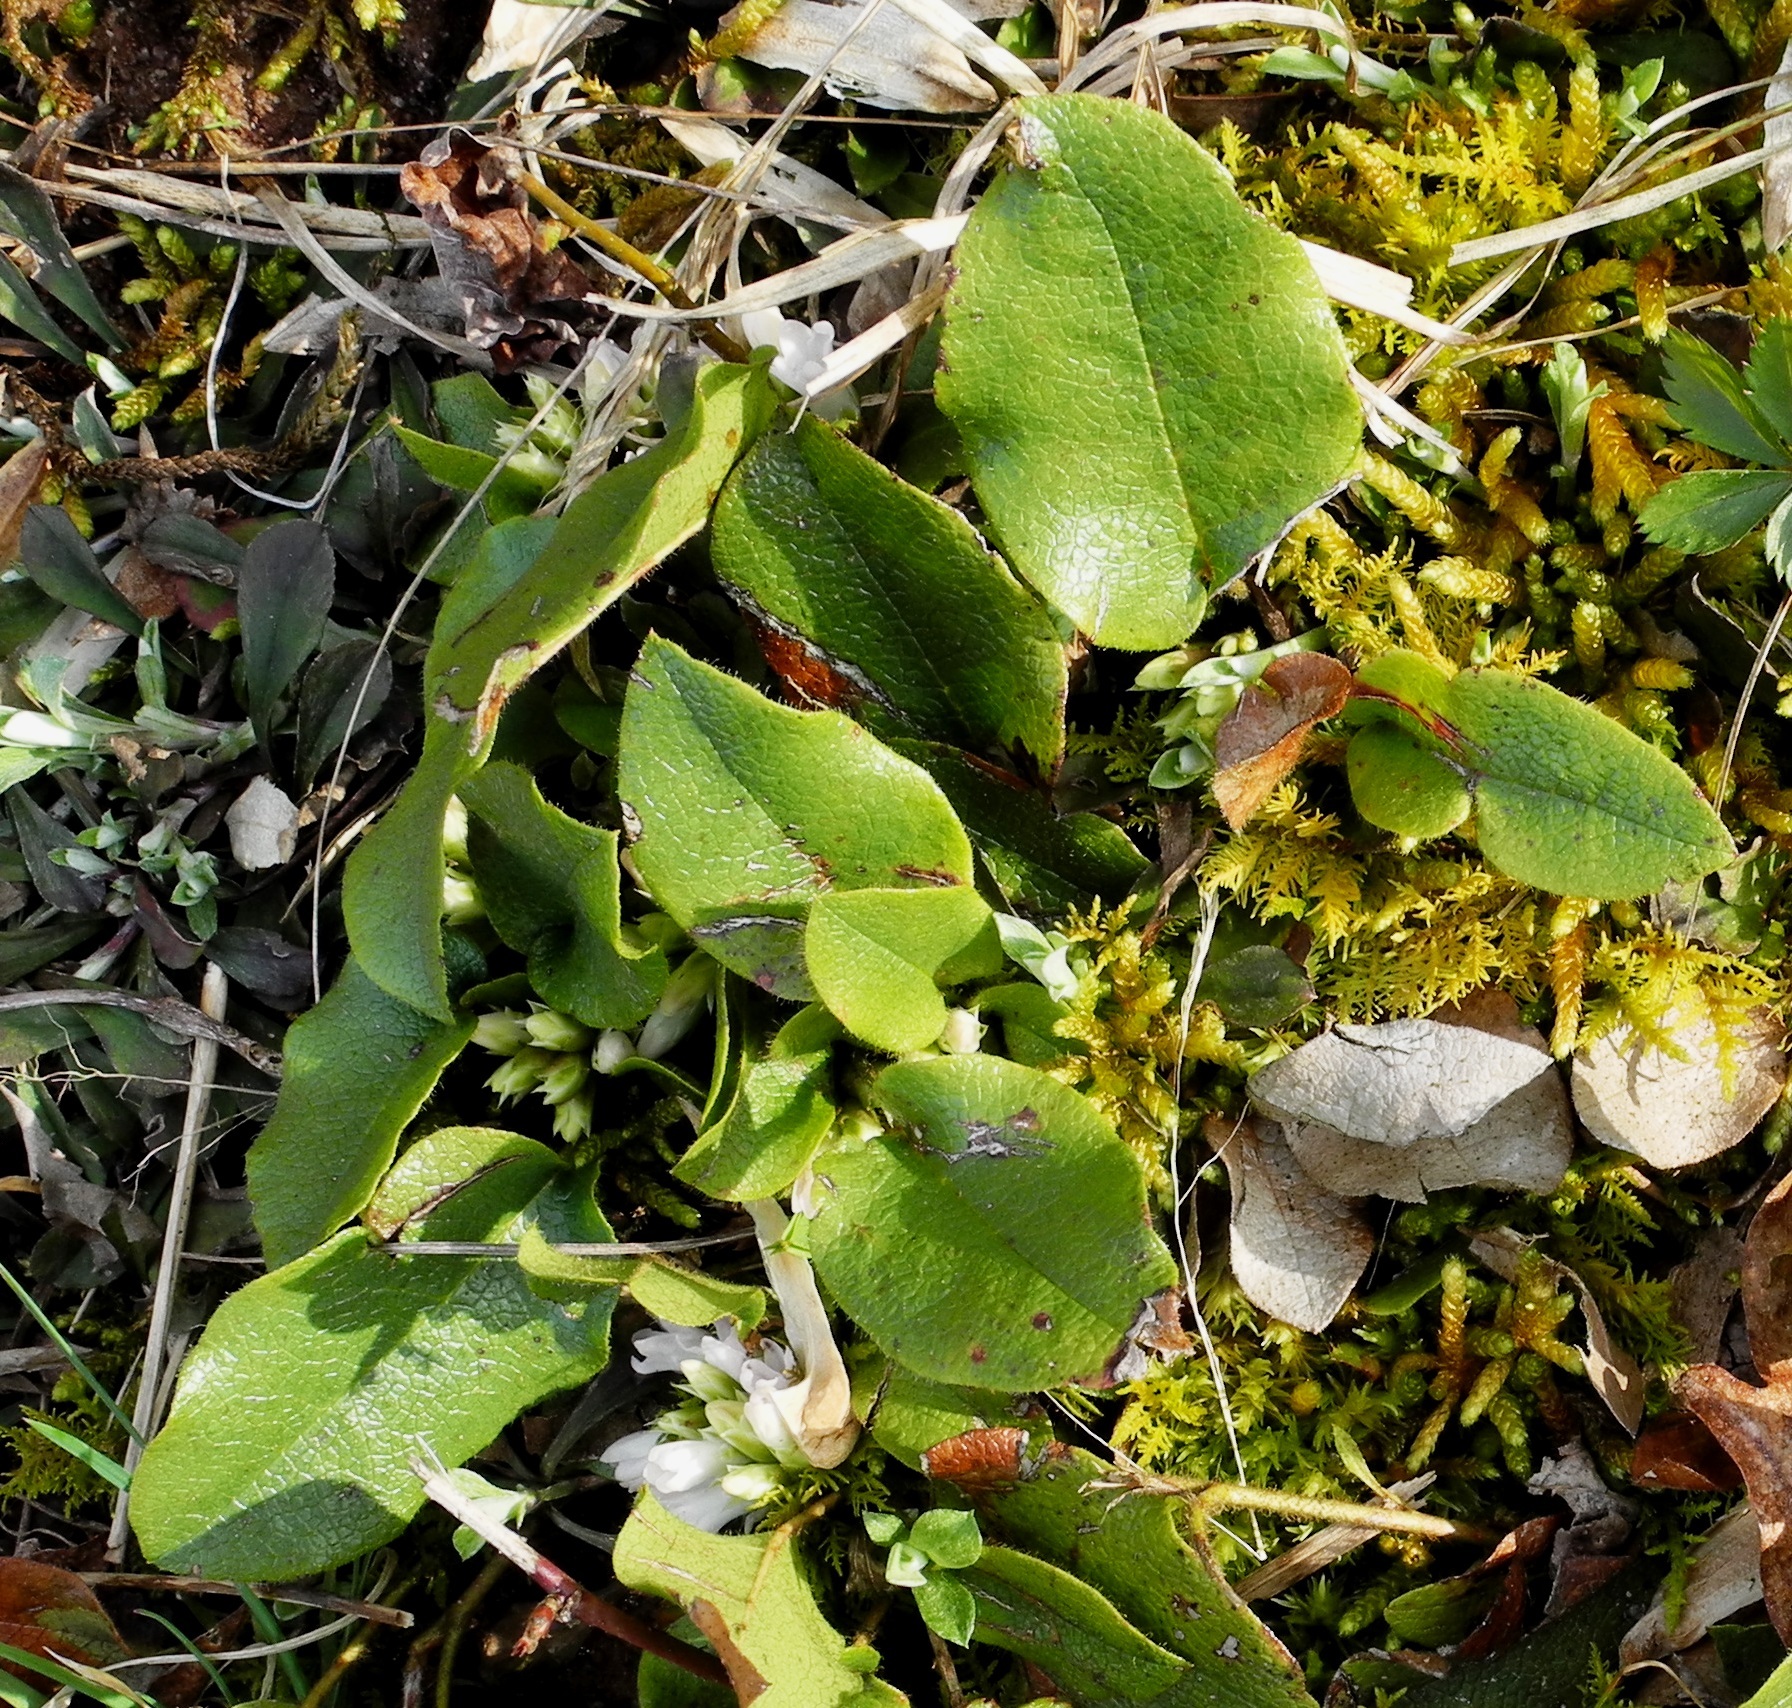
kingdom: Plantae
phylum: Tracheophyta
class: Magnoliopsida
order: Ericales
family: Ericaceae
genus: Epigaea
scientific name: Epigaea repens
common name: Gravelroot
